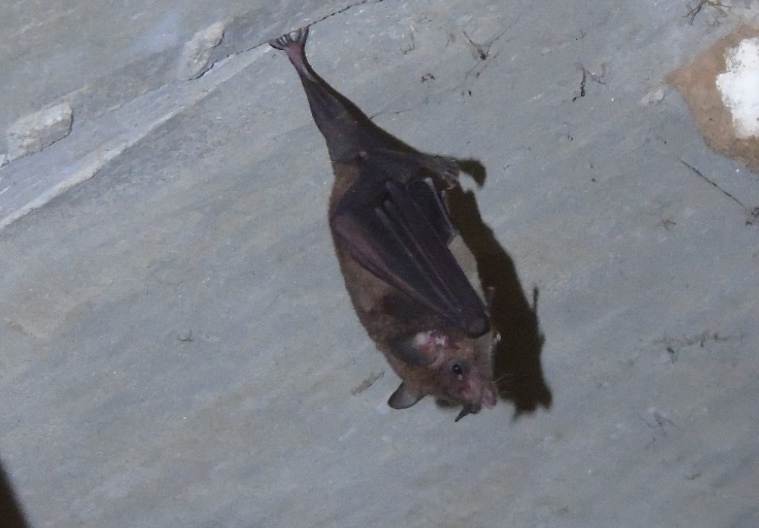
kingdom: Animalia
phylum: Chordata
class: Mammalia
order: Chiroptera
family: Phyllostomidae
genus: Glossophaga
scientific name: Glossophaga soricina
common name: Pallas's long-tongued bat
